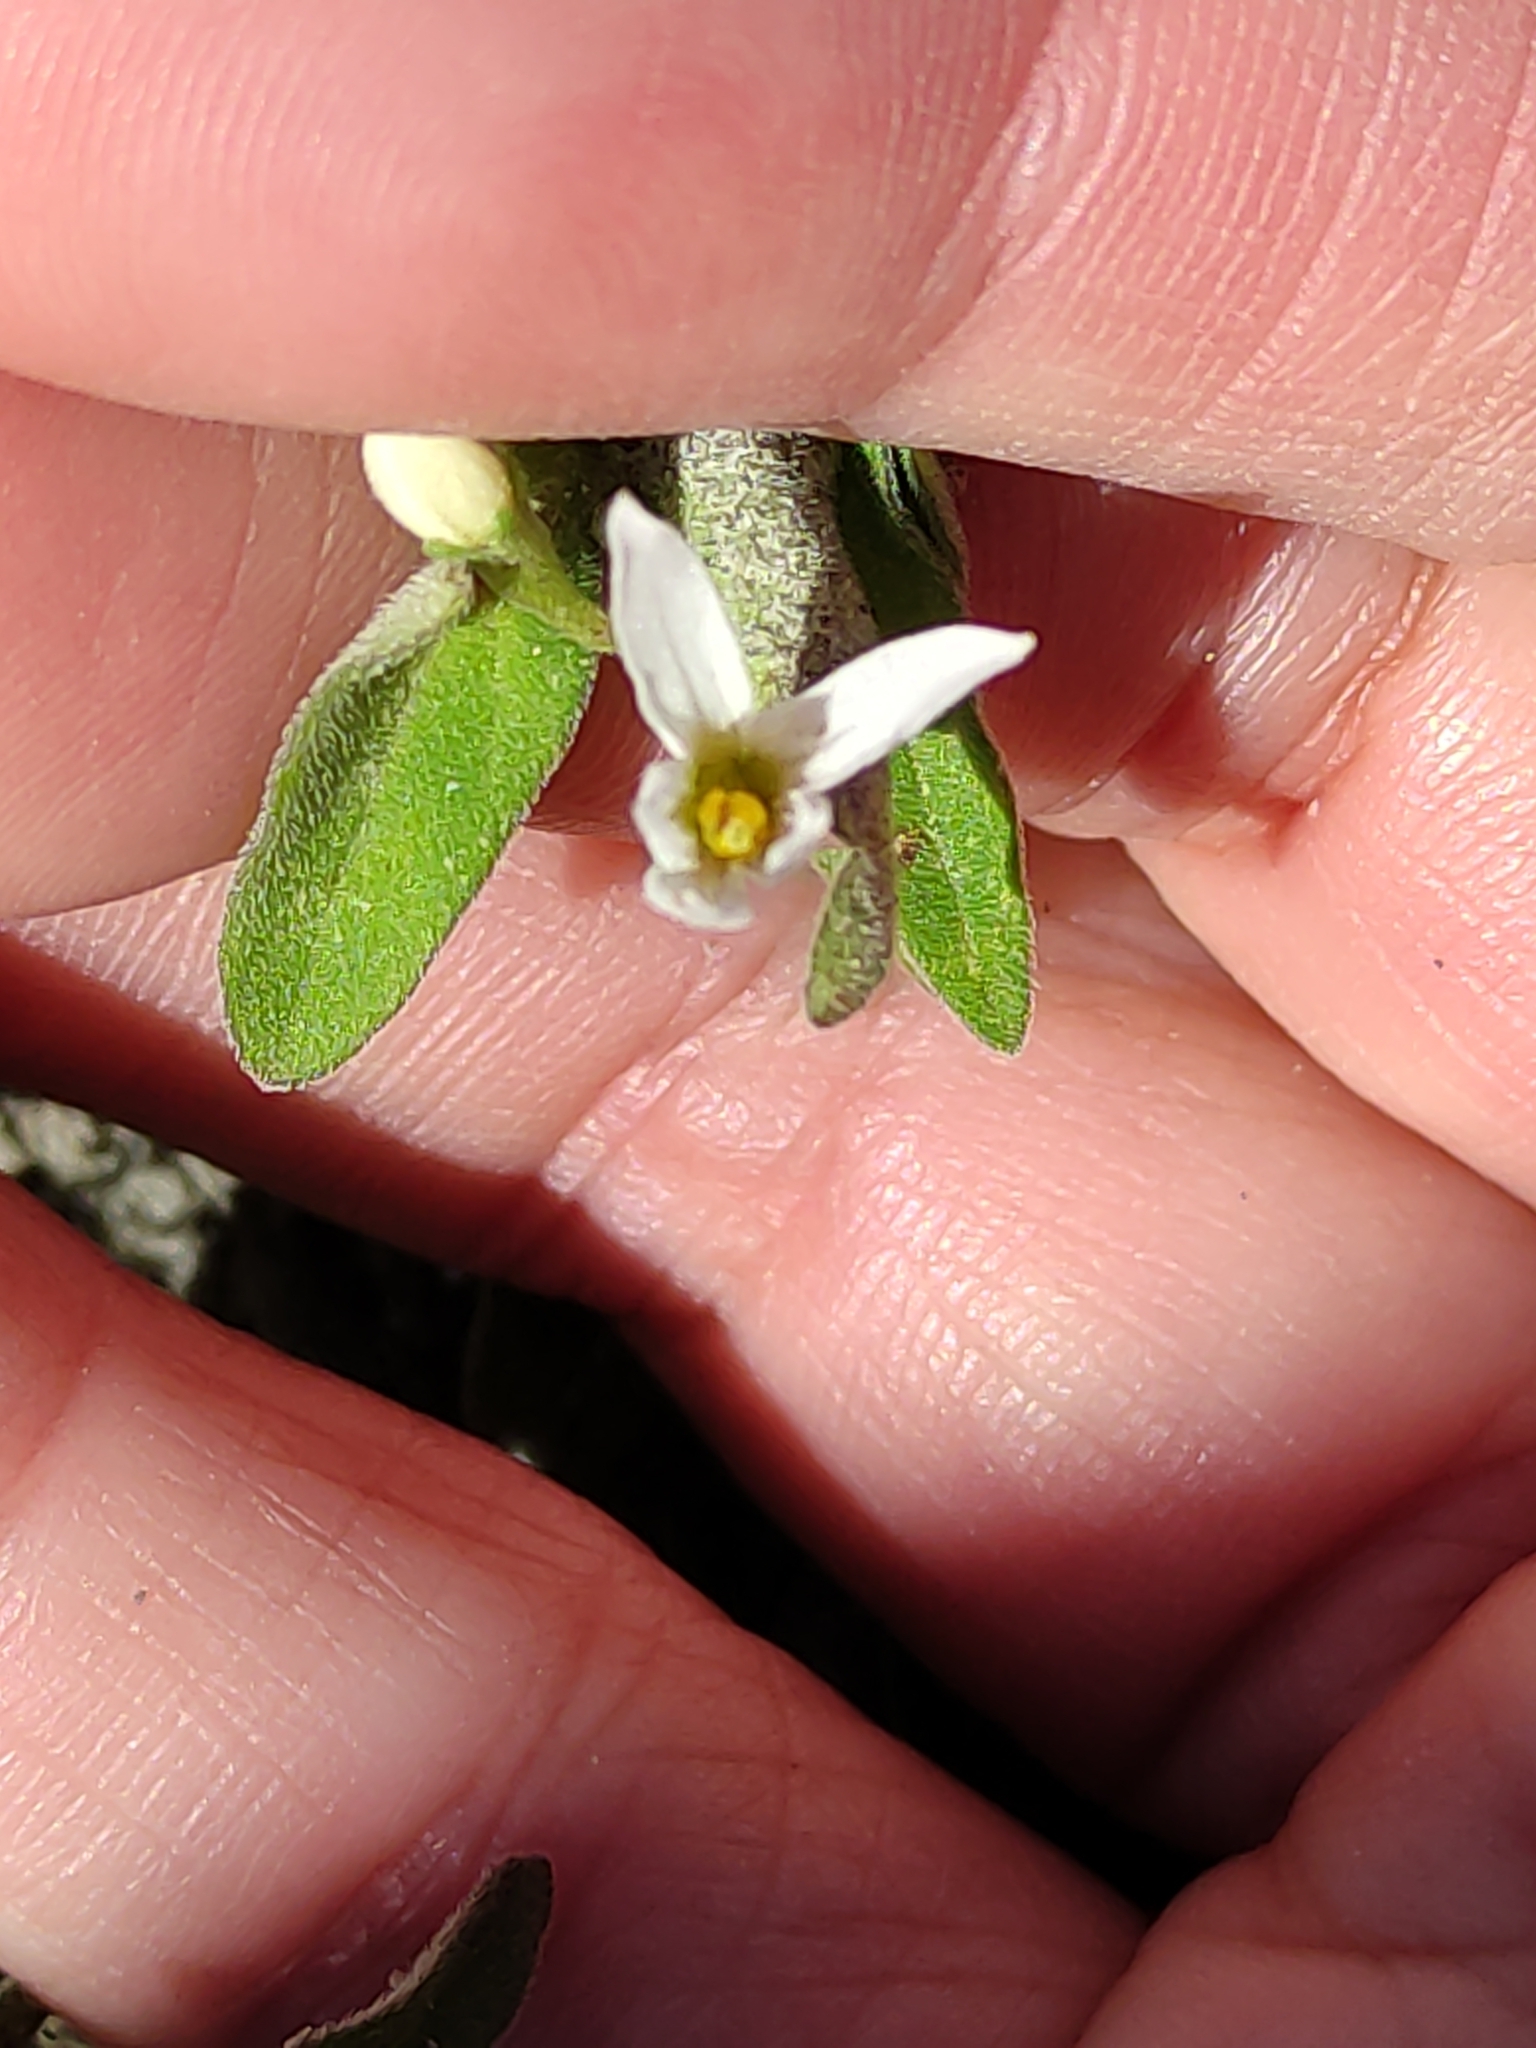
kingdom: Plantae
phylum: Tracheophyta
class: Magnoliopsida
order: Solanales
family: Solanaceae
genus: Solanum
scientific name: Solanum chenopodioides
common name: Tall nightshade
